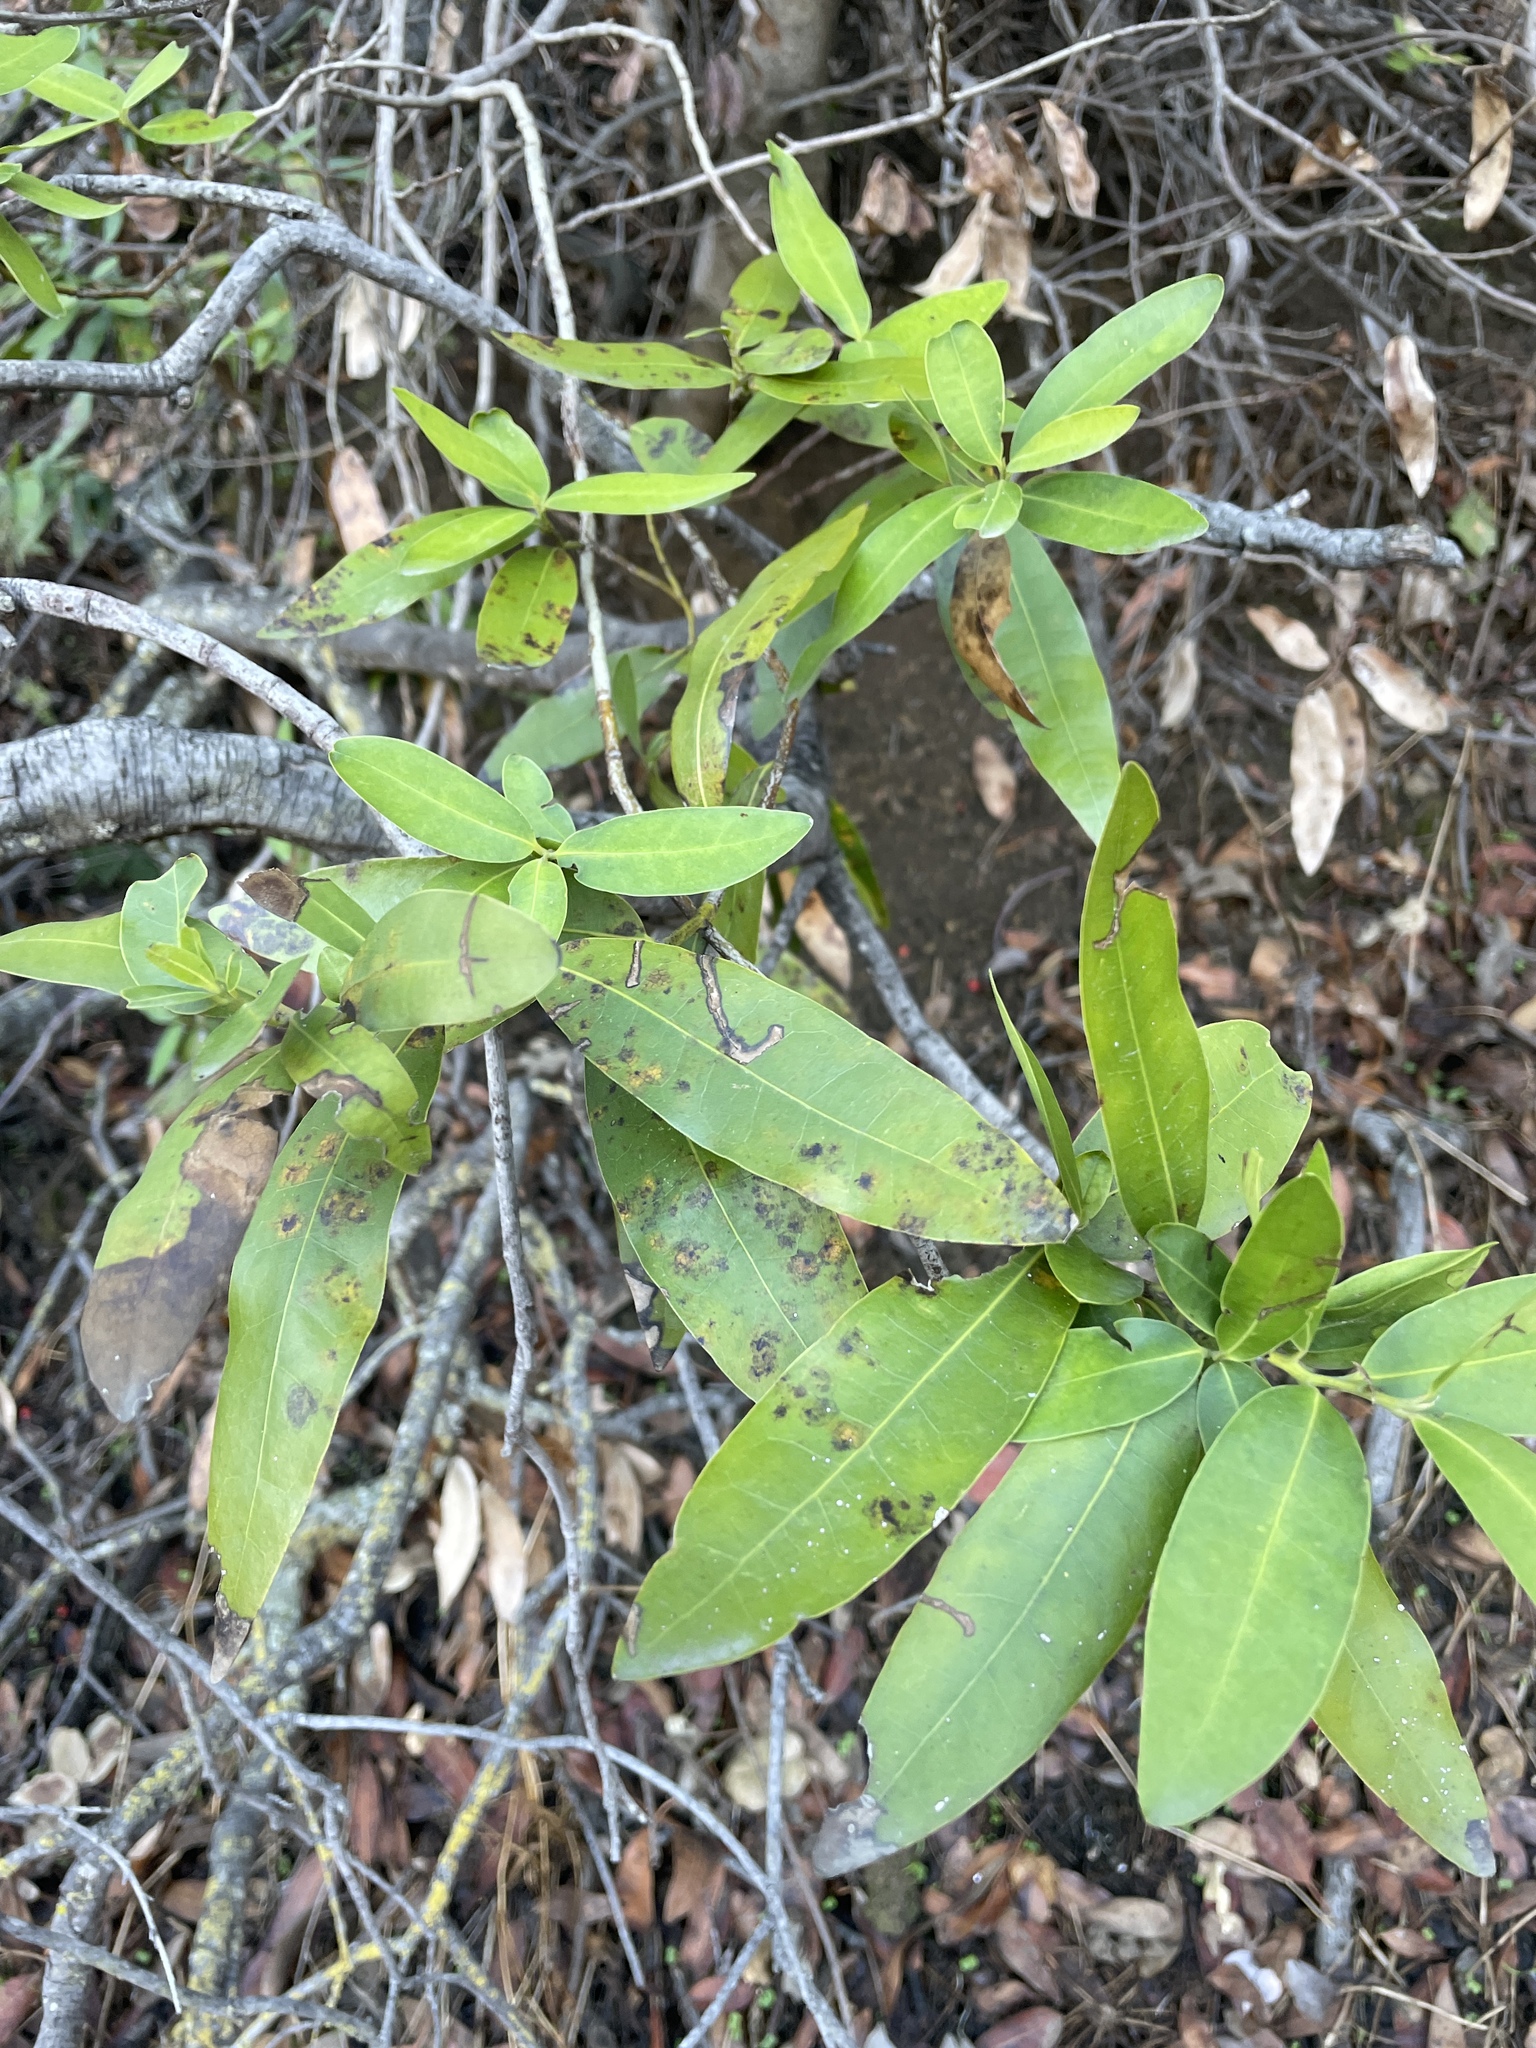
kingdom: Plantae
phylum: Tracheophyta
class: Magnoliopsida
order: Laurales
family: Lauraceae
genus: Umbellularia
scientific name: Umbellularia californica
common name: California bay
